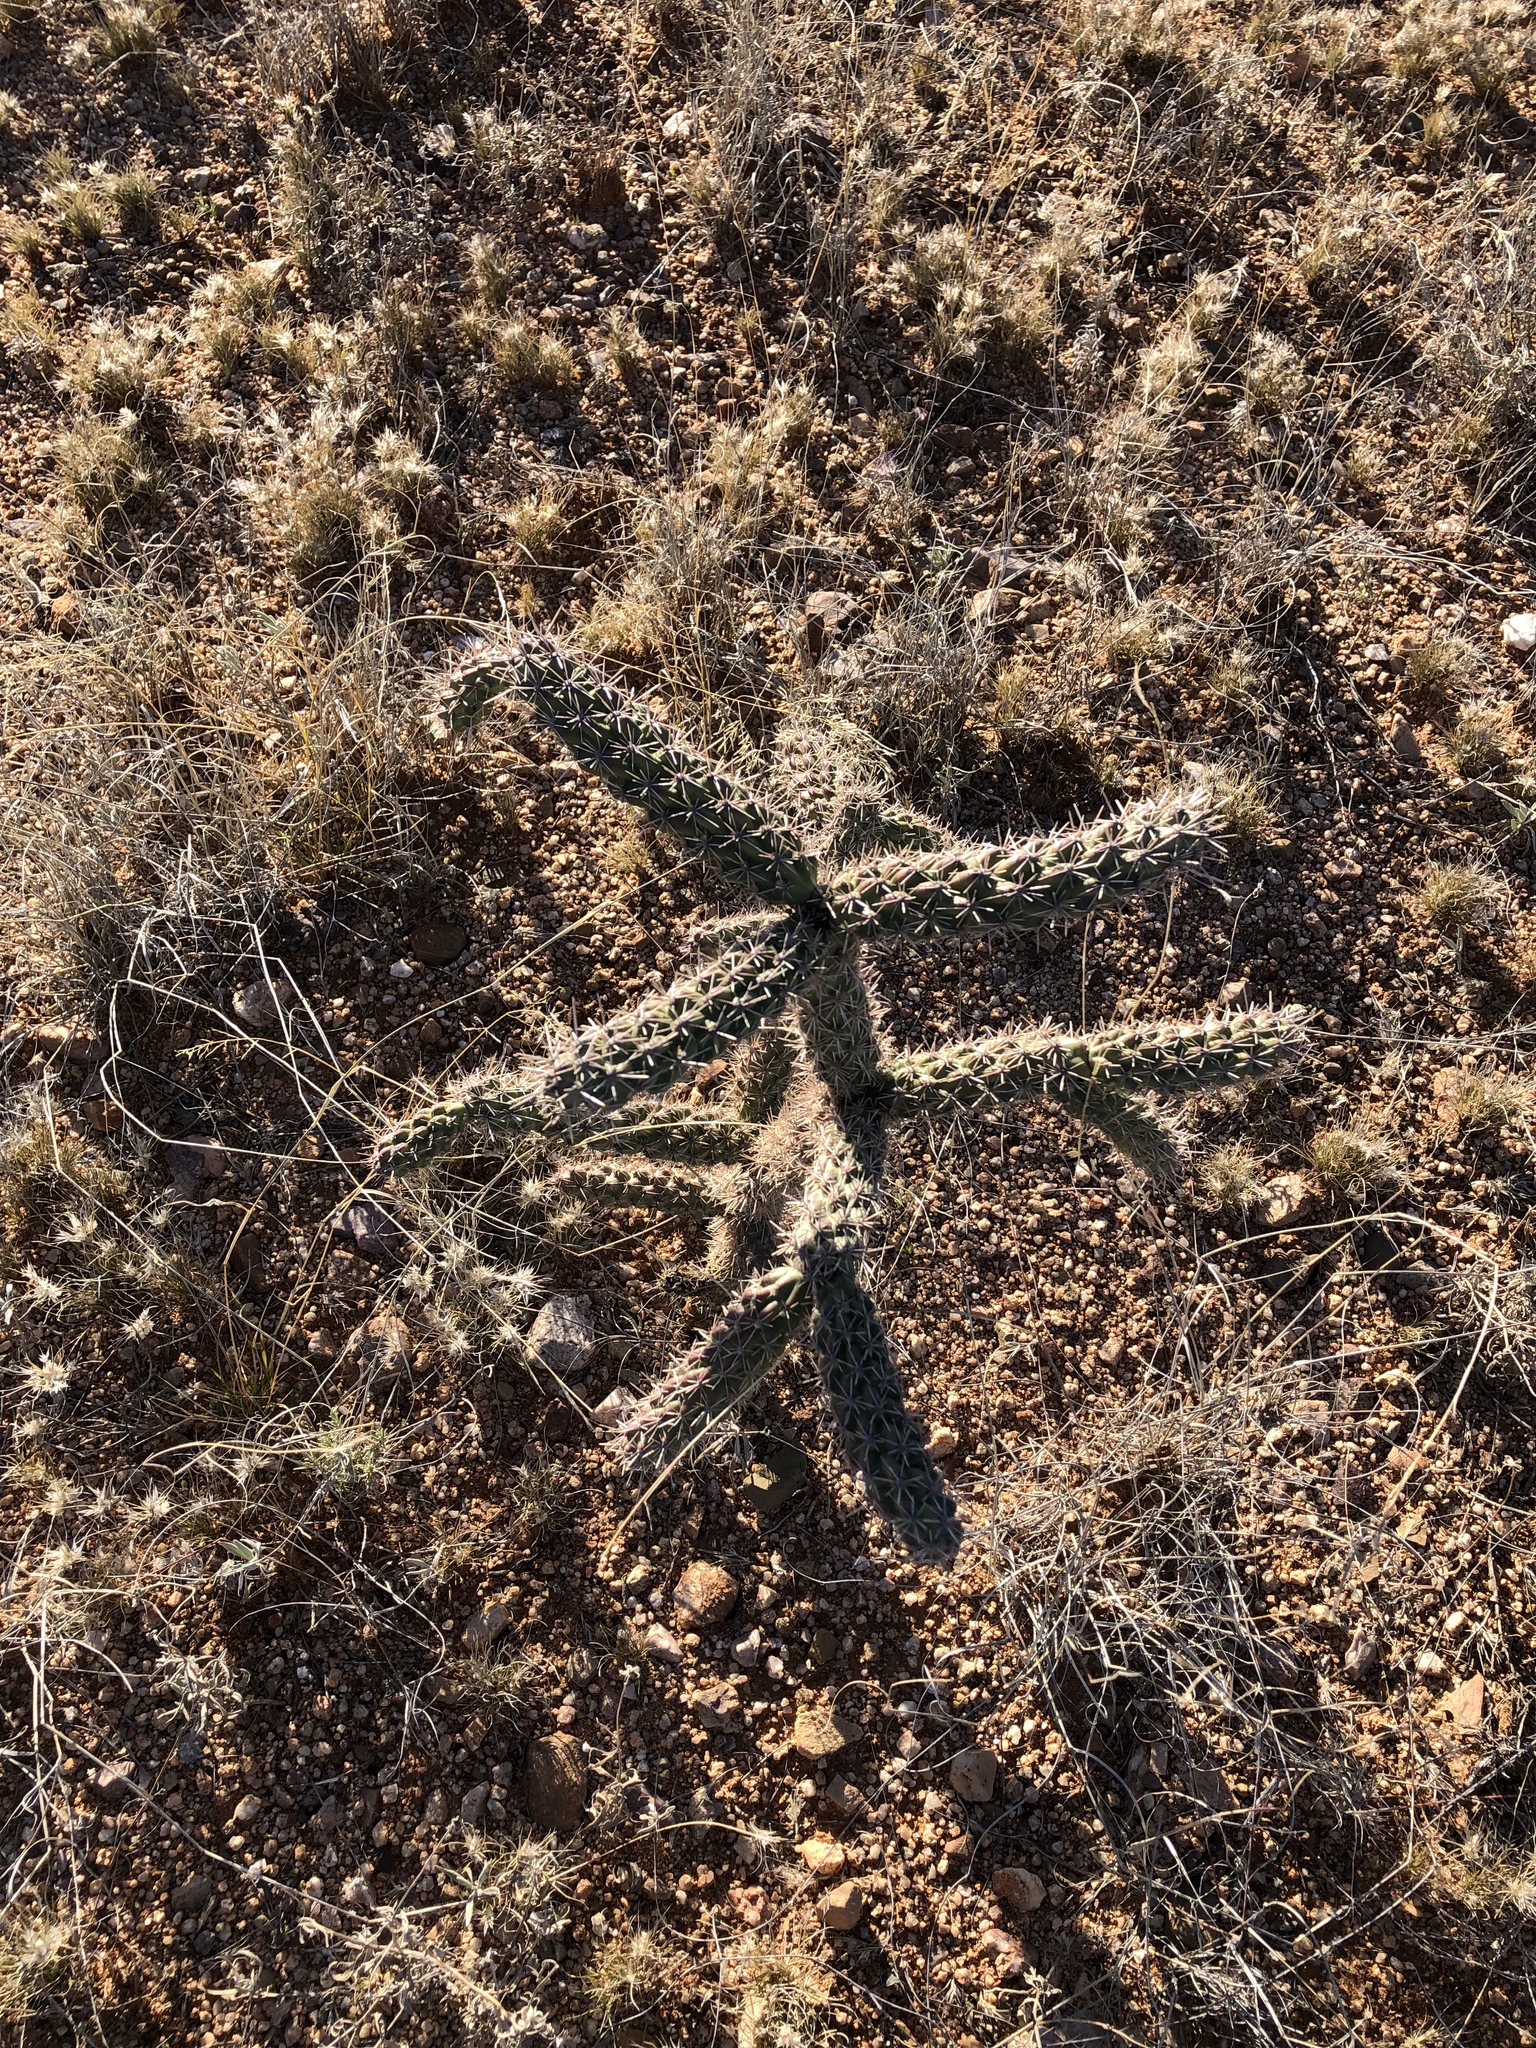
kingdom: Plantae
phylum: Tracheophyta
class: Magnoliopsida
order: Caryophyllales
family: Cactaceae
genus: Cylindropuntia
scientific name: Cylindropuntia imbricata
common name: Candelabrum cactus
